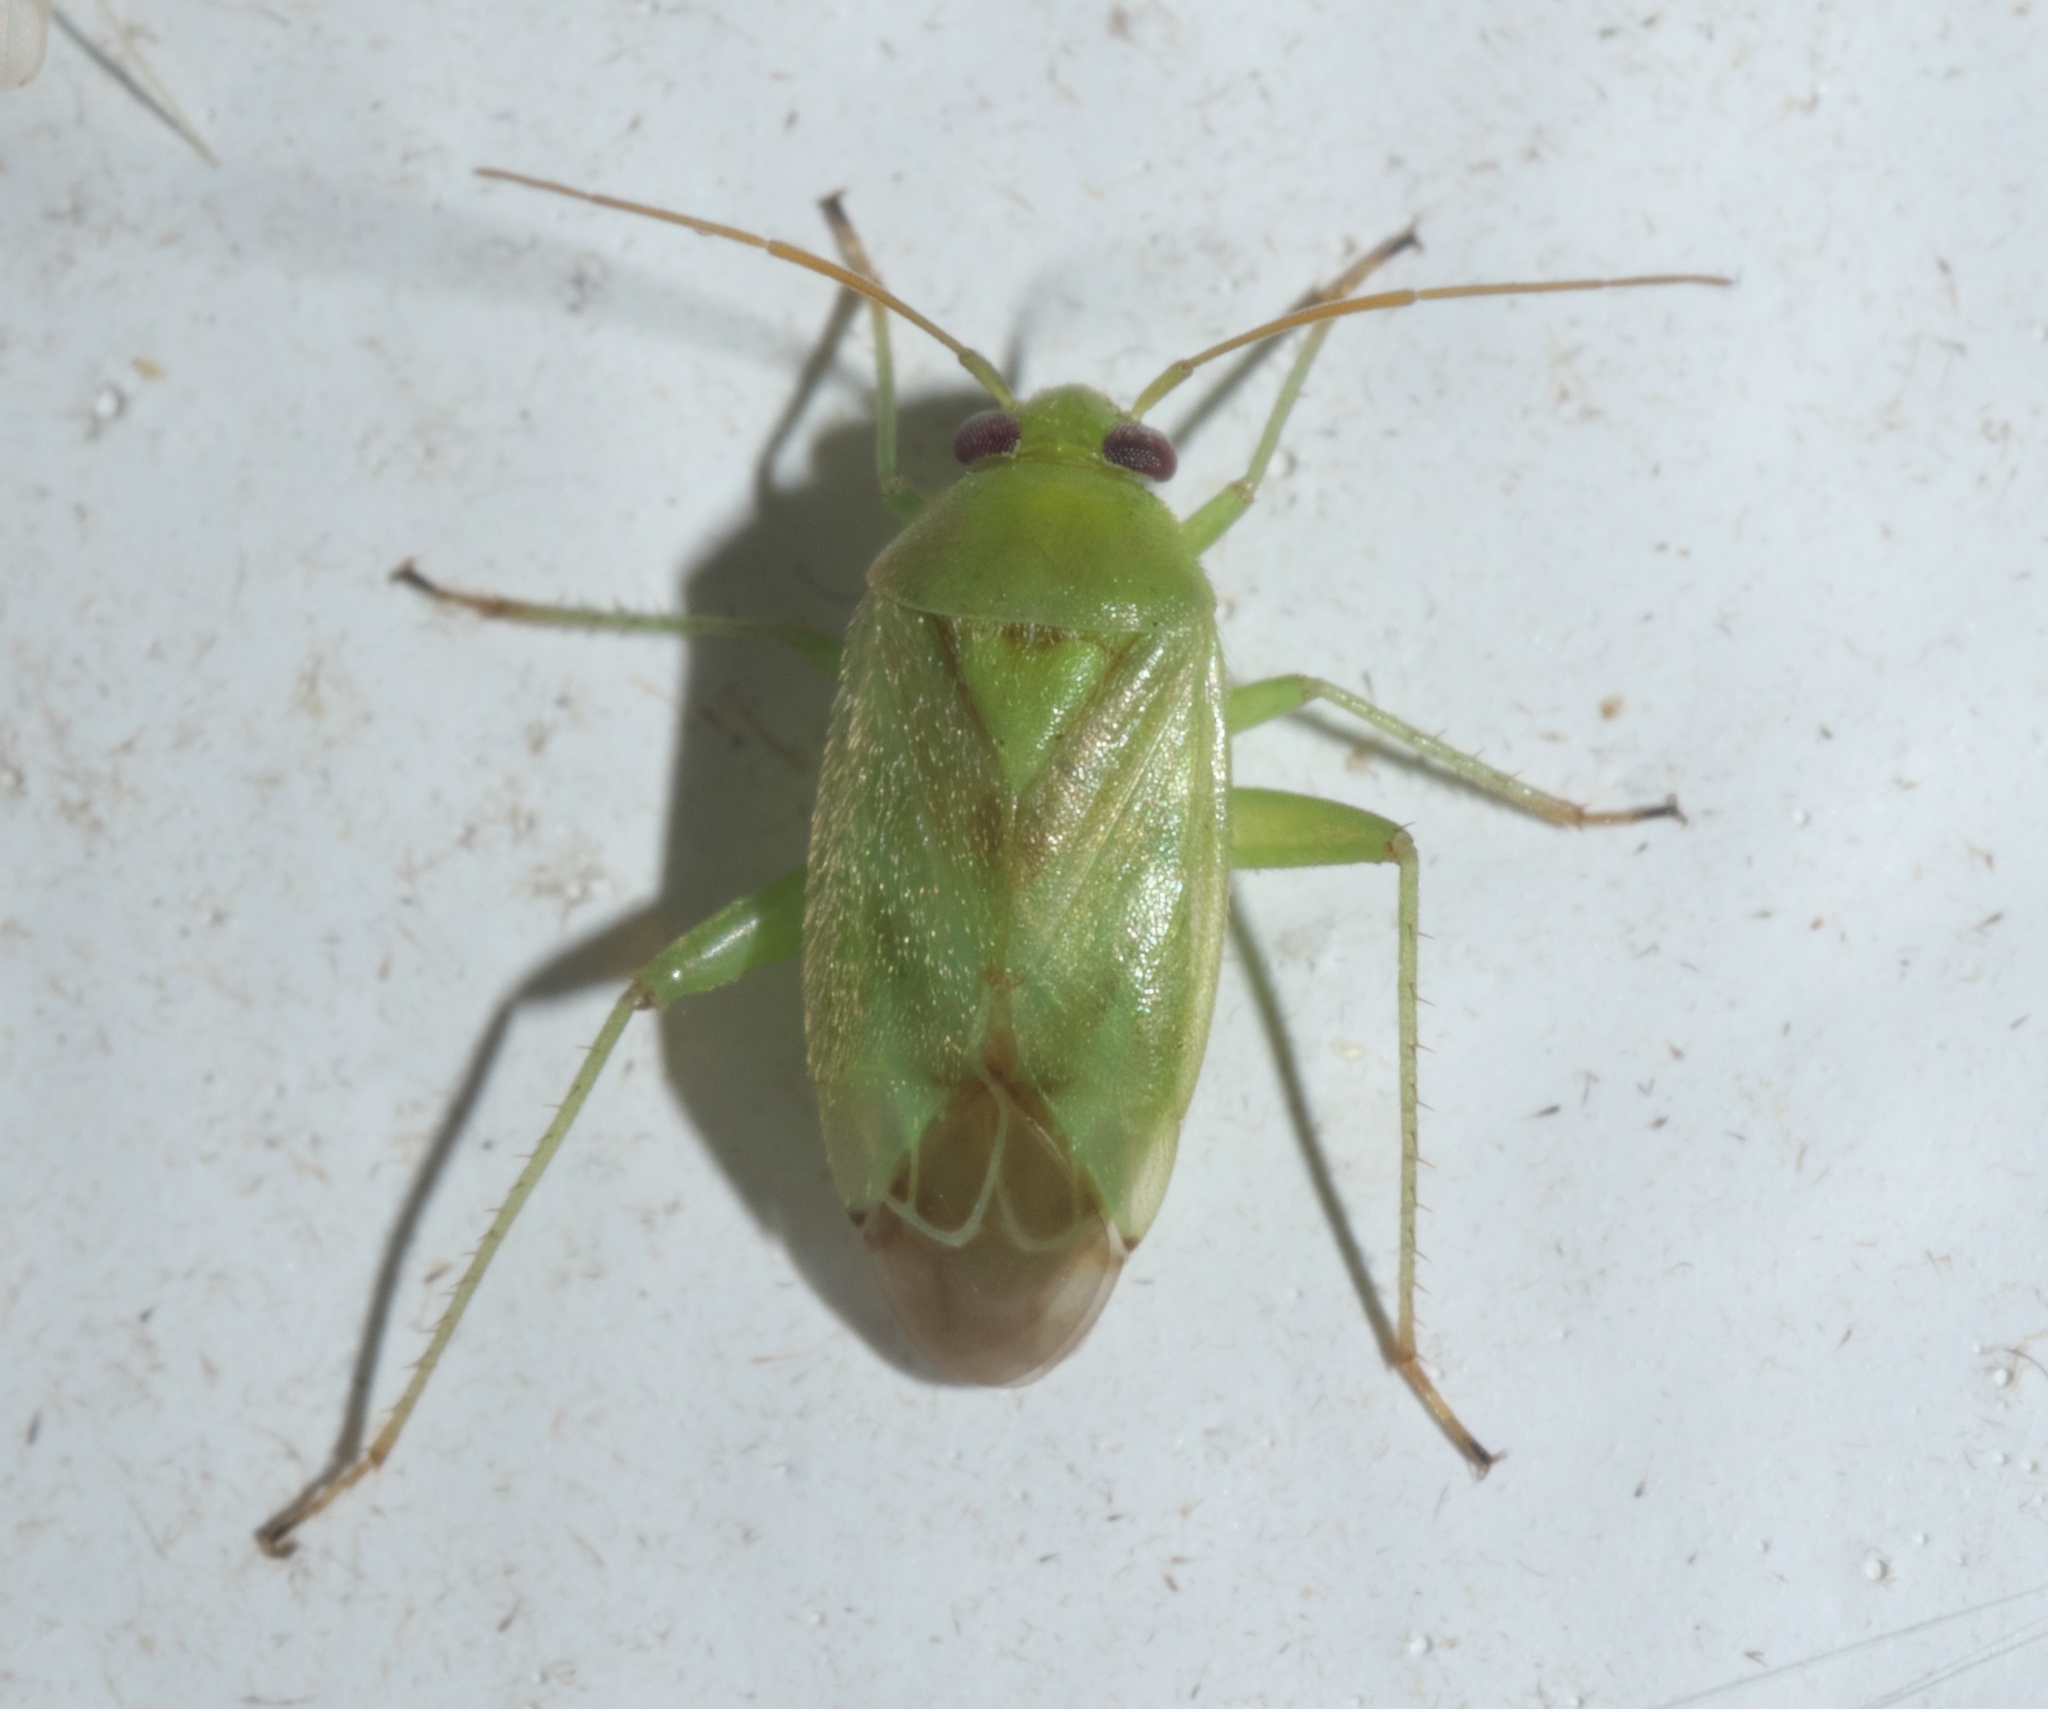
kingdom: Animalia
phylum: Arthropoda
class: Insecta
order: Hemiptera
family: Miridae
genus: Taylorilygus
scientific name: Taylorilygus apicalis
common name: Plant bug
